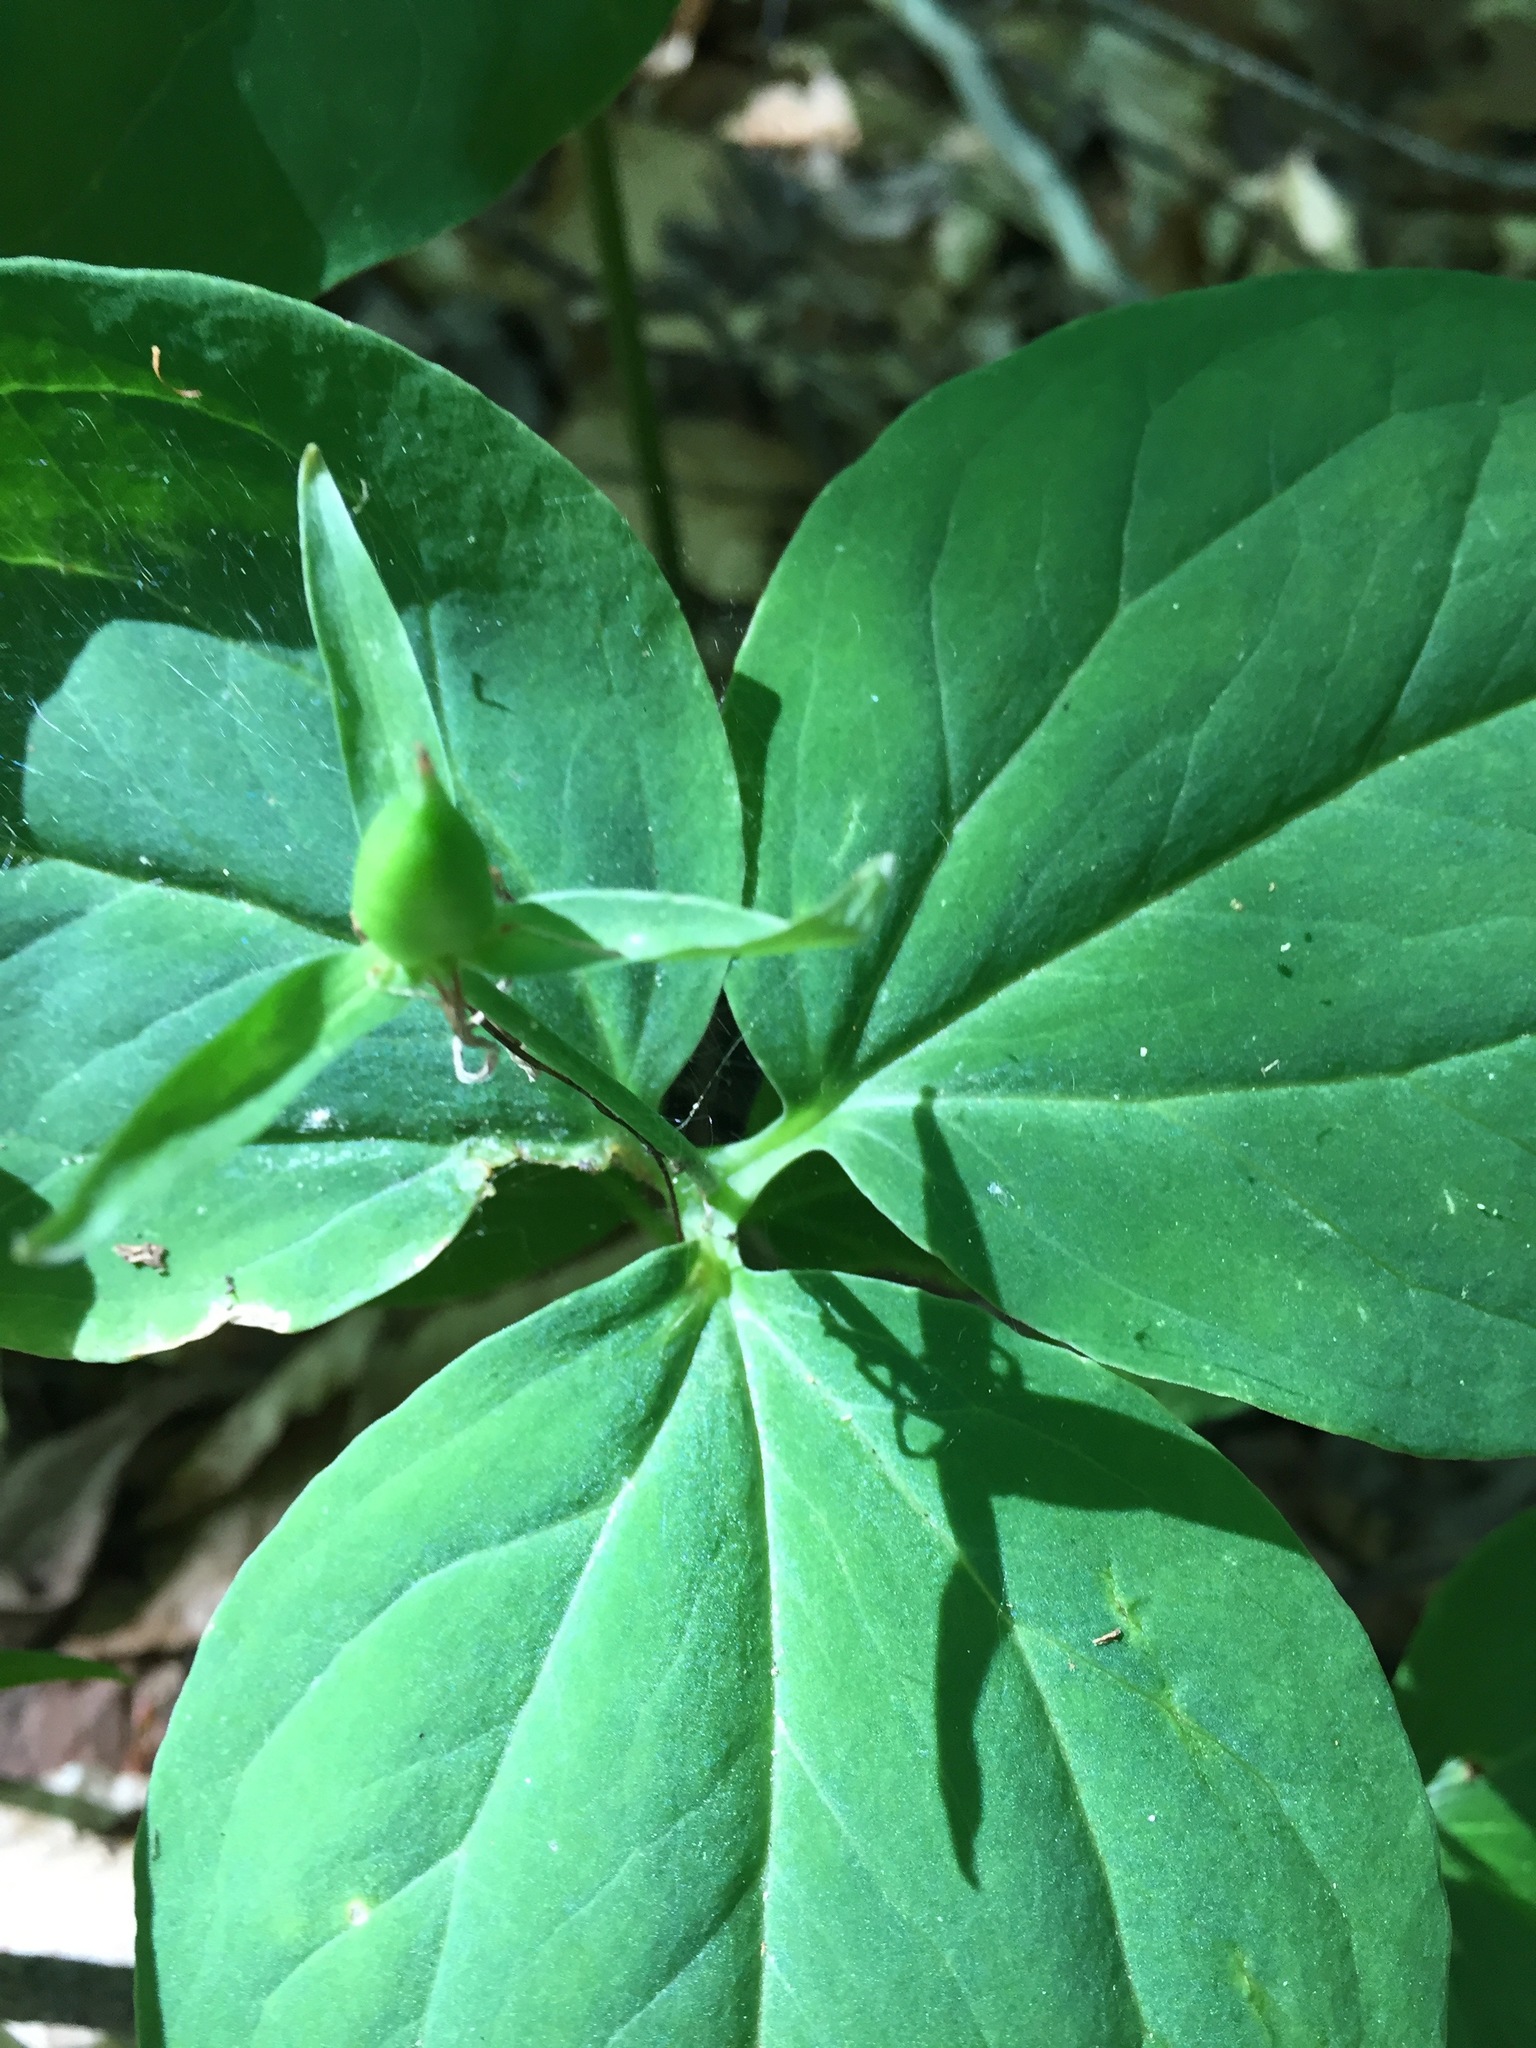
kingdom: Plantae
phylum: Tracheophyta
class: Liliopsida
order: Liliales
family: Melanthiaceae
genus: Trillium
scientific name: Trillium undulatum
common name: Paint trillium
